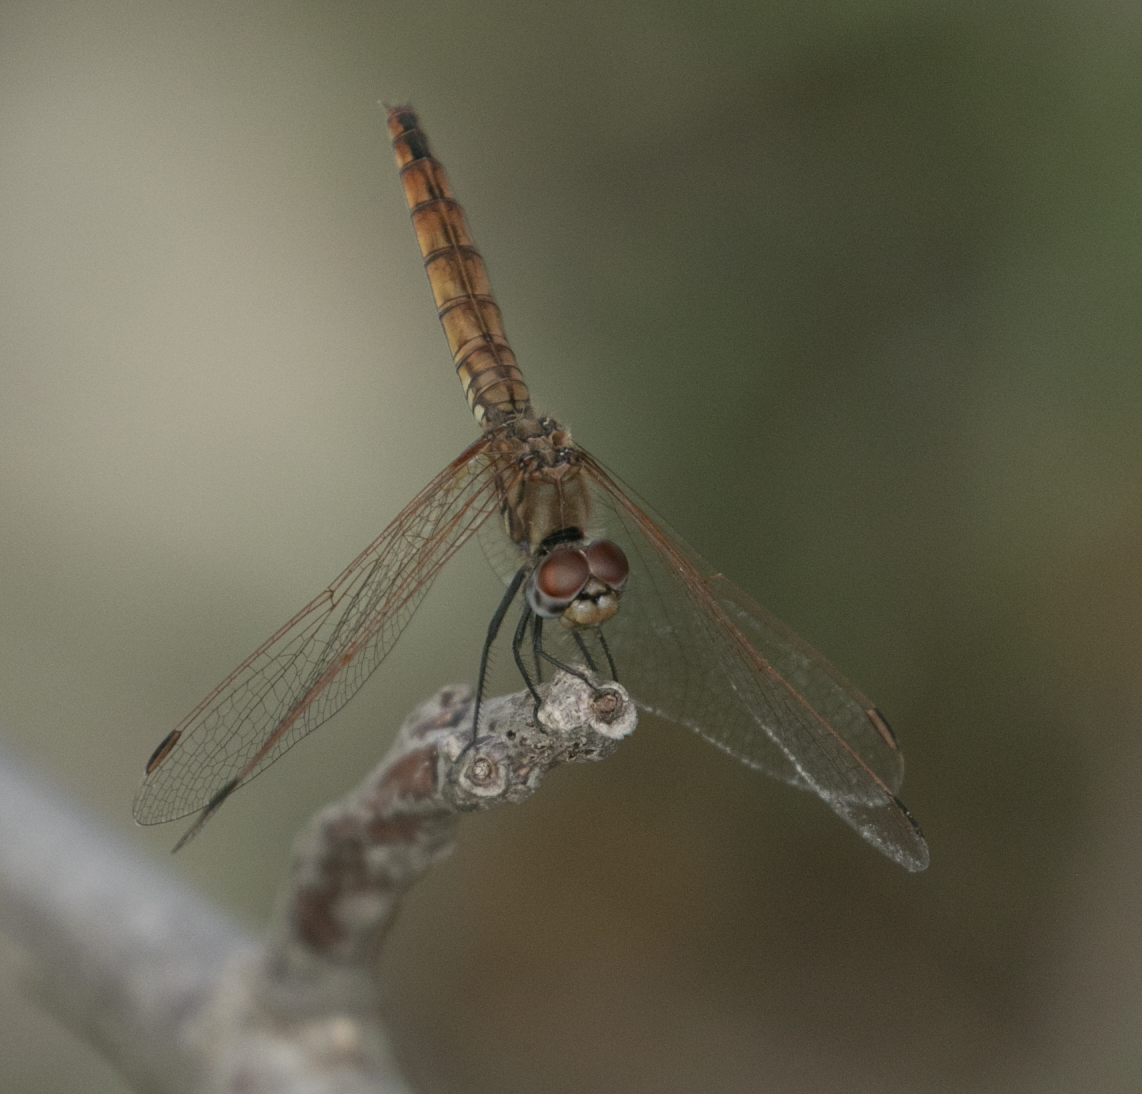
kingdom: Animalia
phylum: Arthropoda
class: Insecta
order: Odonata
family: Libellulidae
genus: Trithemis
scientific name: Trithemis annulata
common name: Violet dropwing
